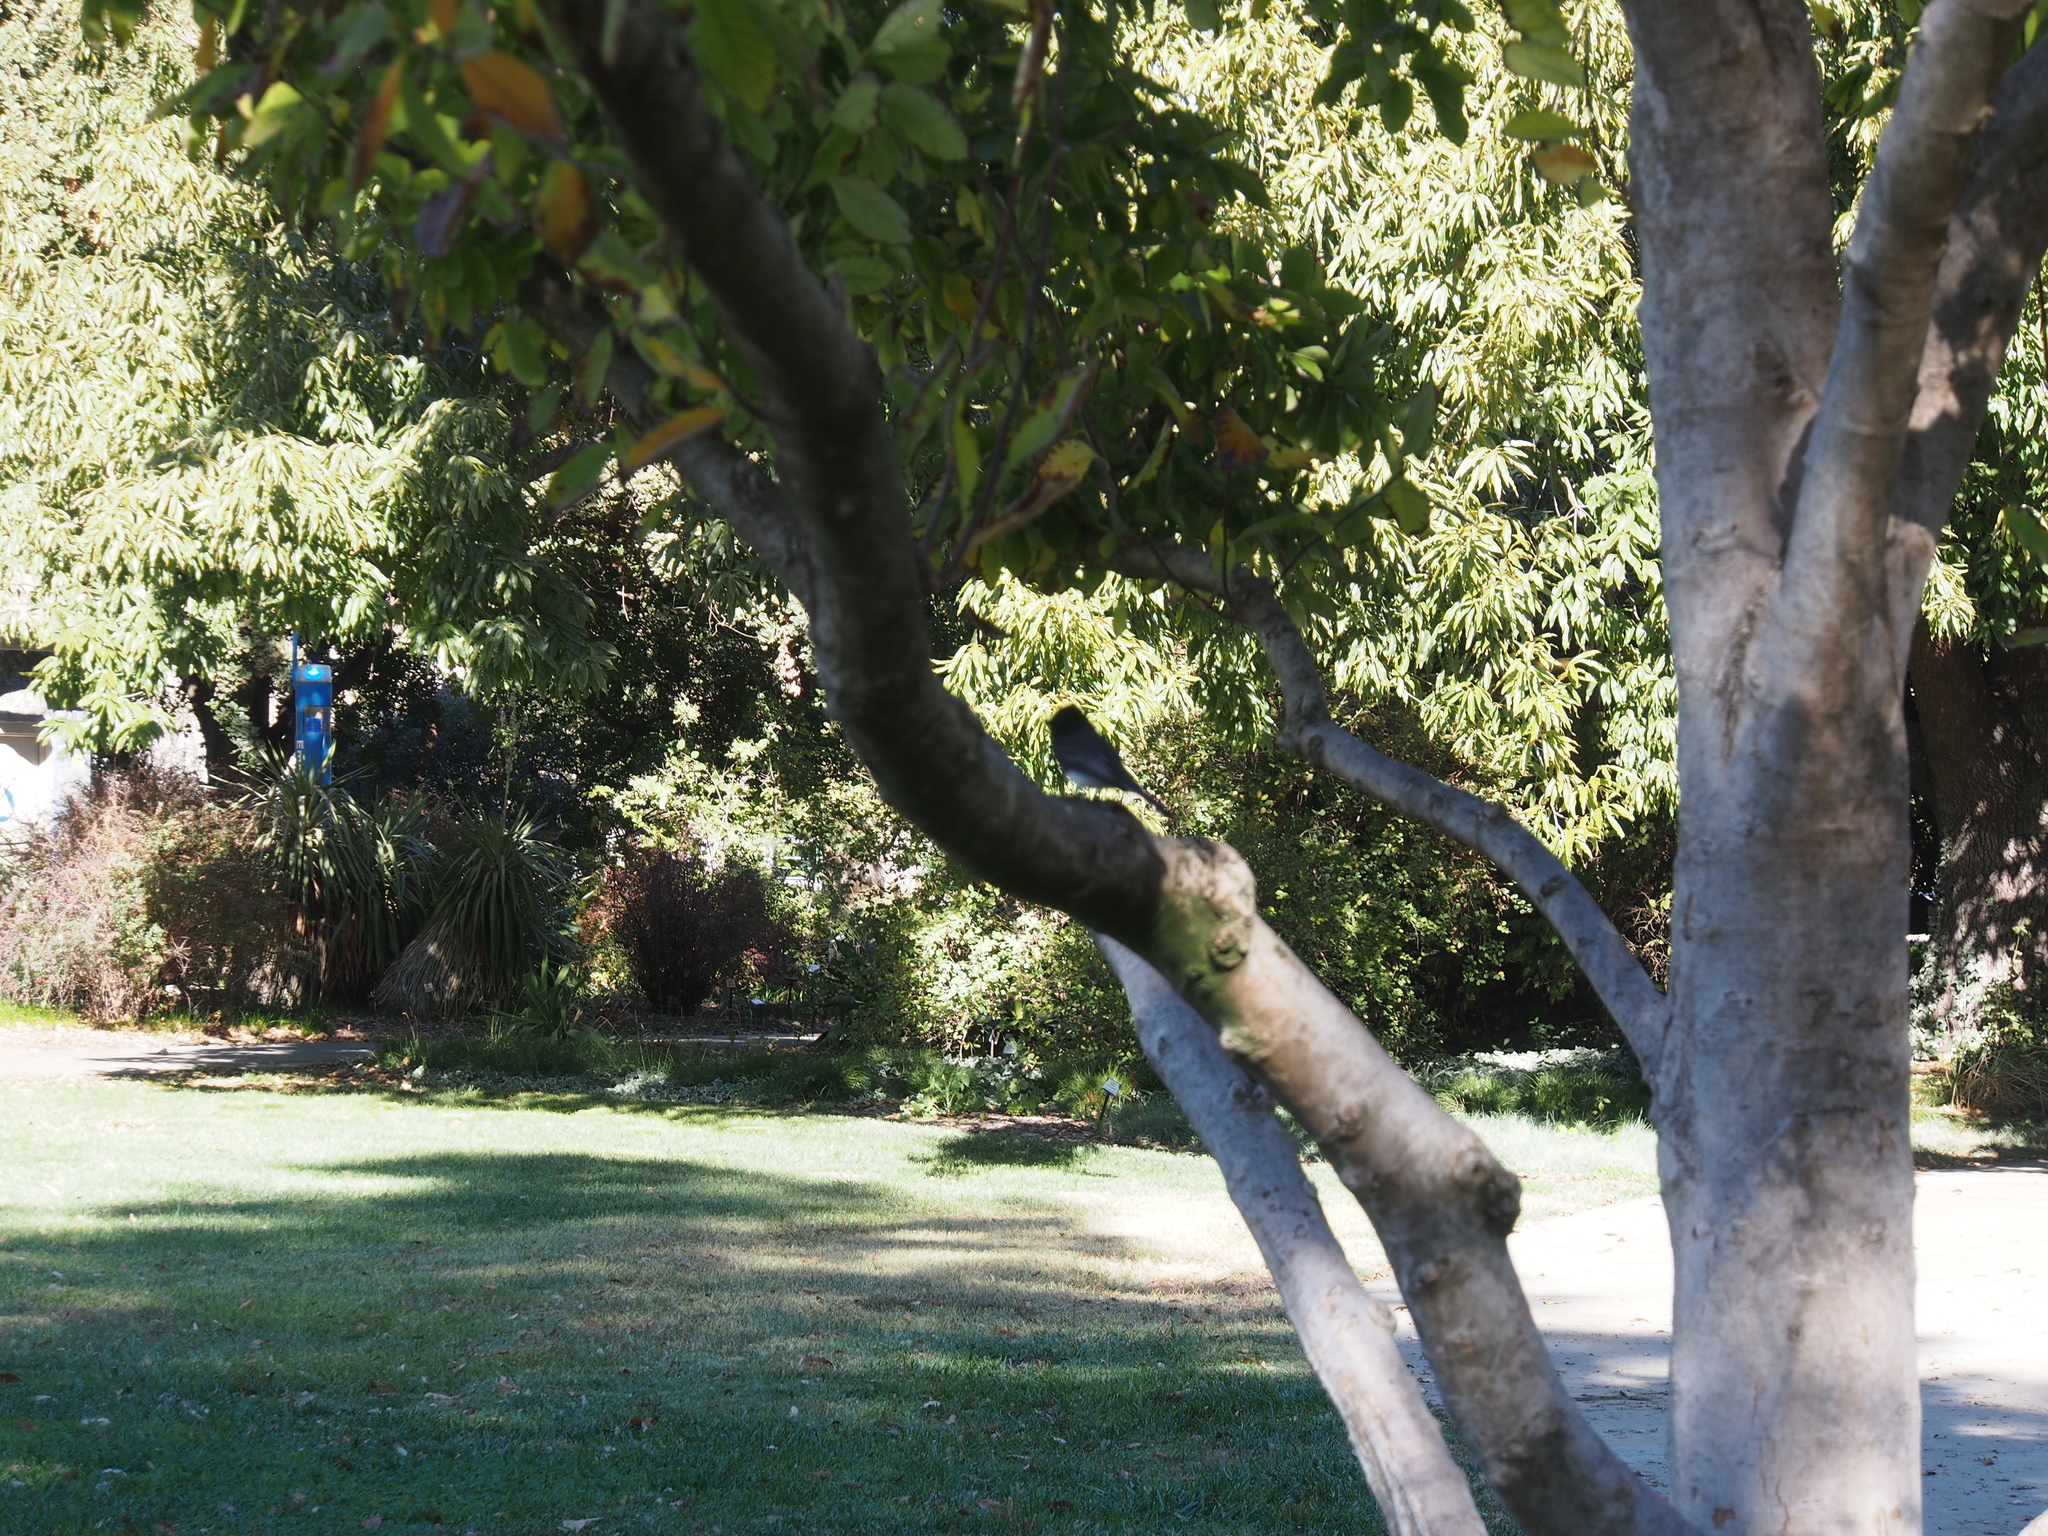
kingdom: Animalia
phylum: Chordata
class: Aves
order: Passeriformes
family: Tyrannidae
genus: Sayornis
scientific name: Sayornis nigricans
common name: Black phoebe
